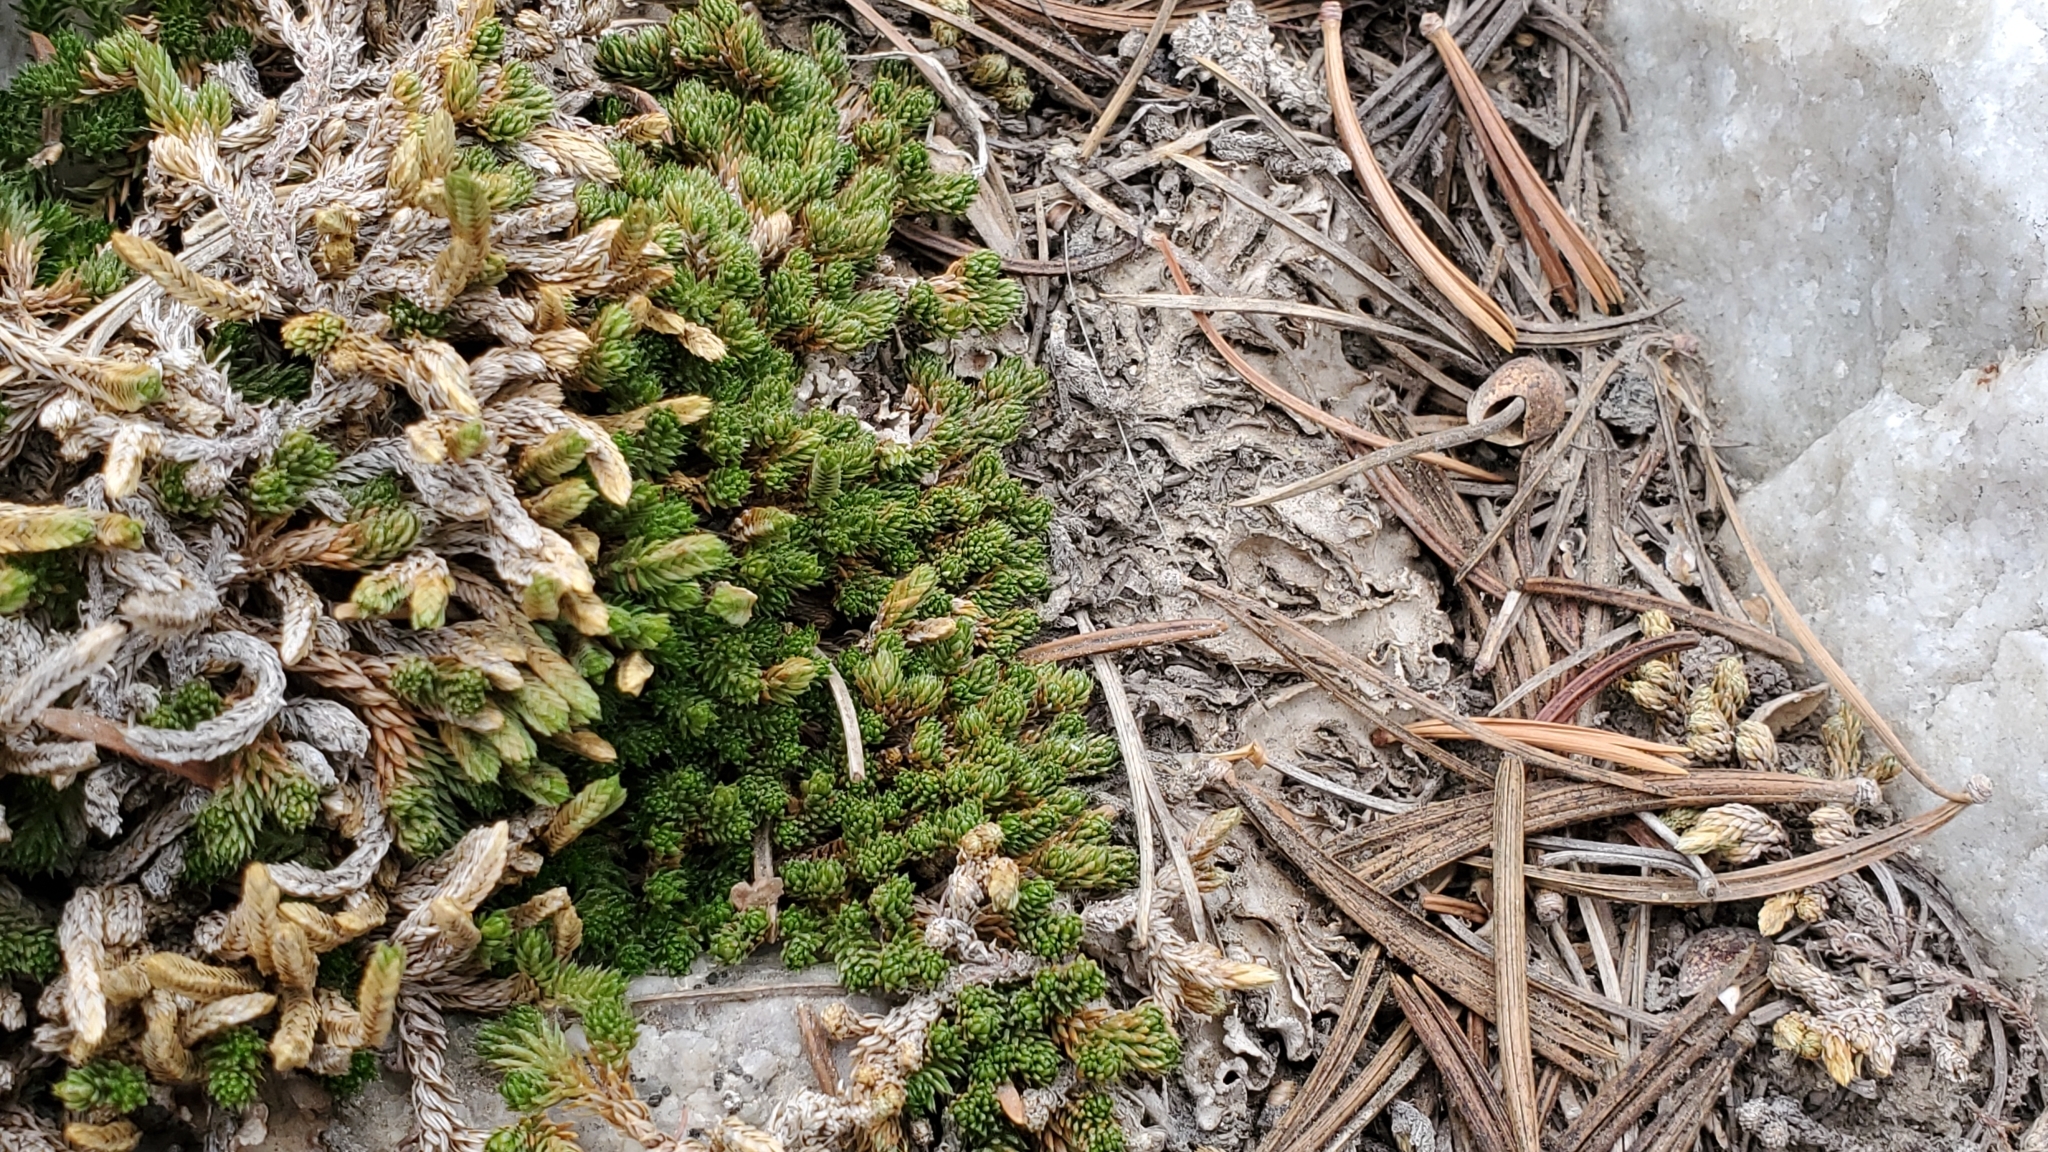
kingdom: Plantae
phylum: Tracheophyta
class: Lycopodiopsida
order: Selaginellales
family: Selaginellaceae
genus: Selaginella
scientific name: Selaginella watsonii
